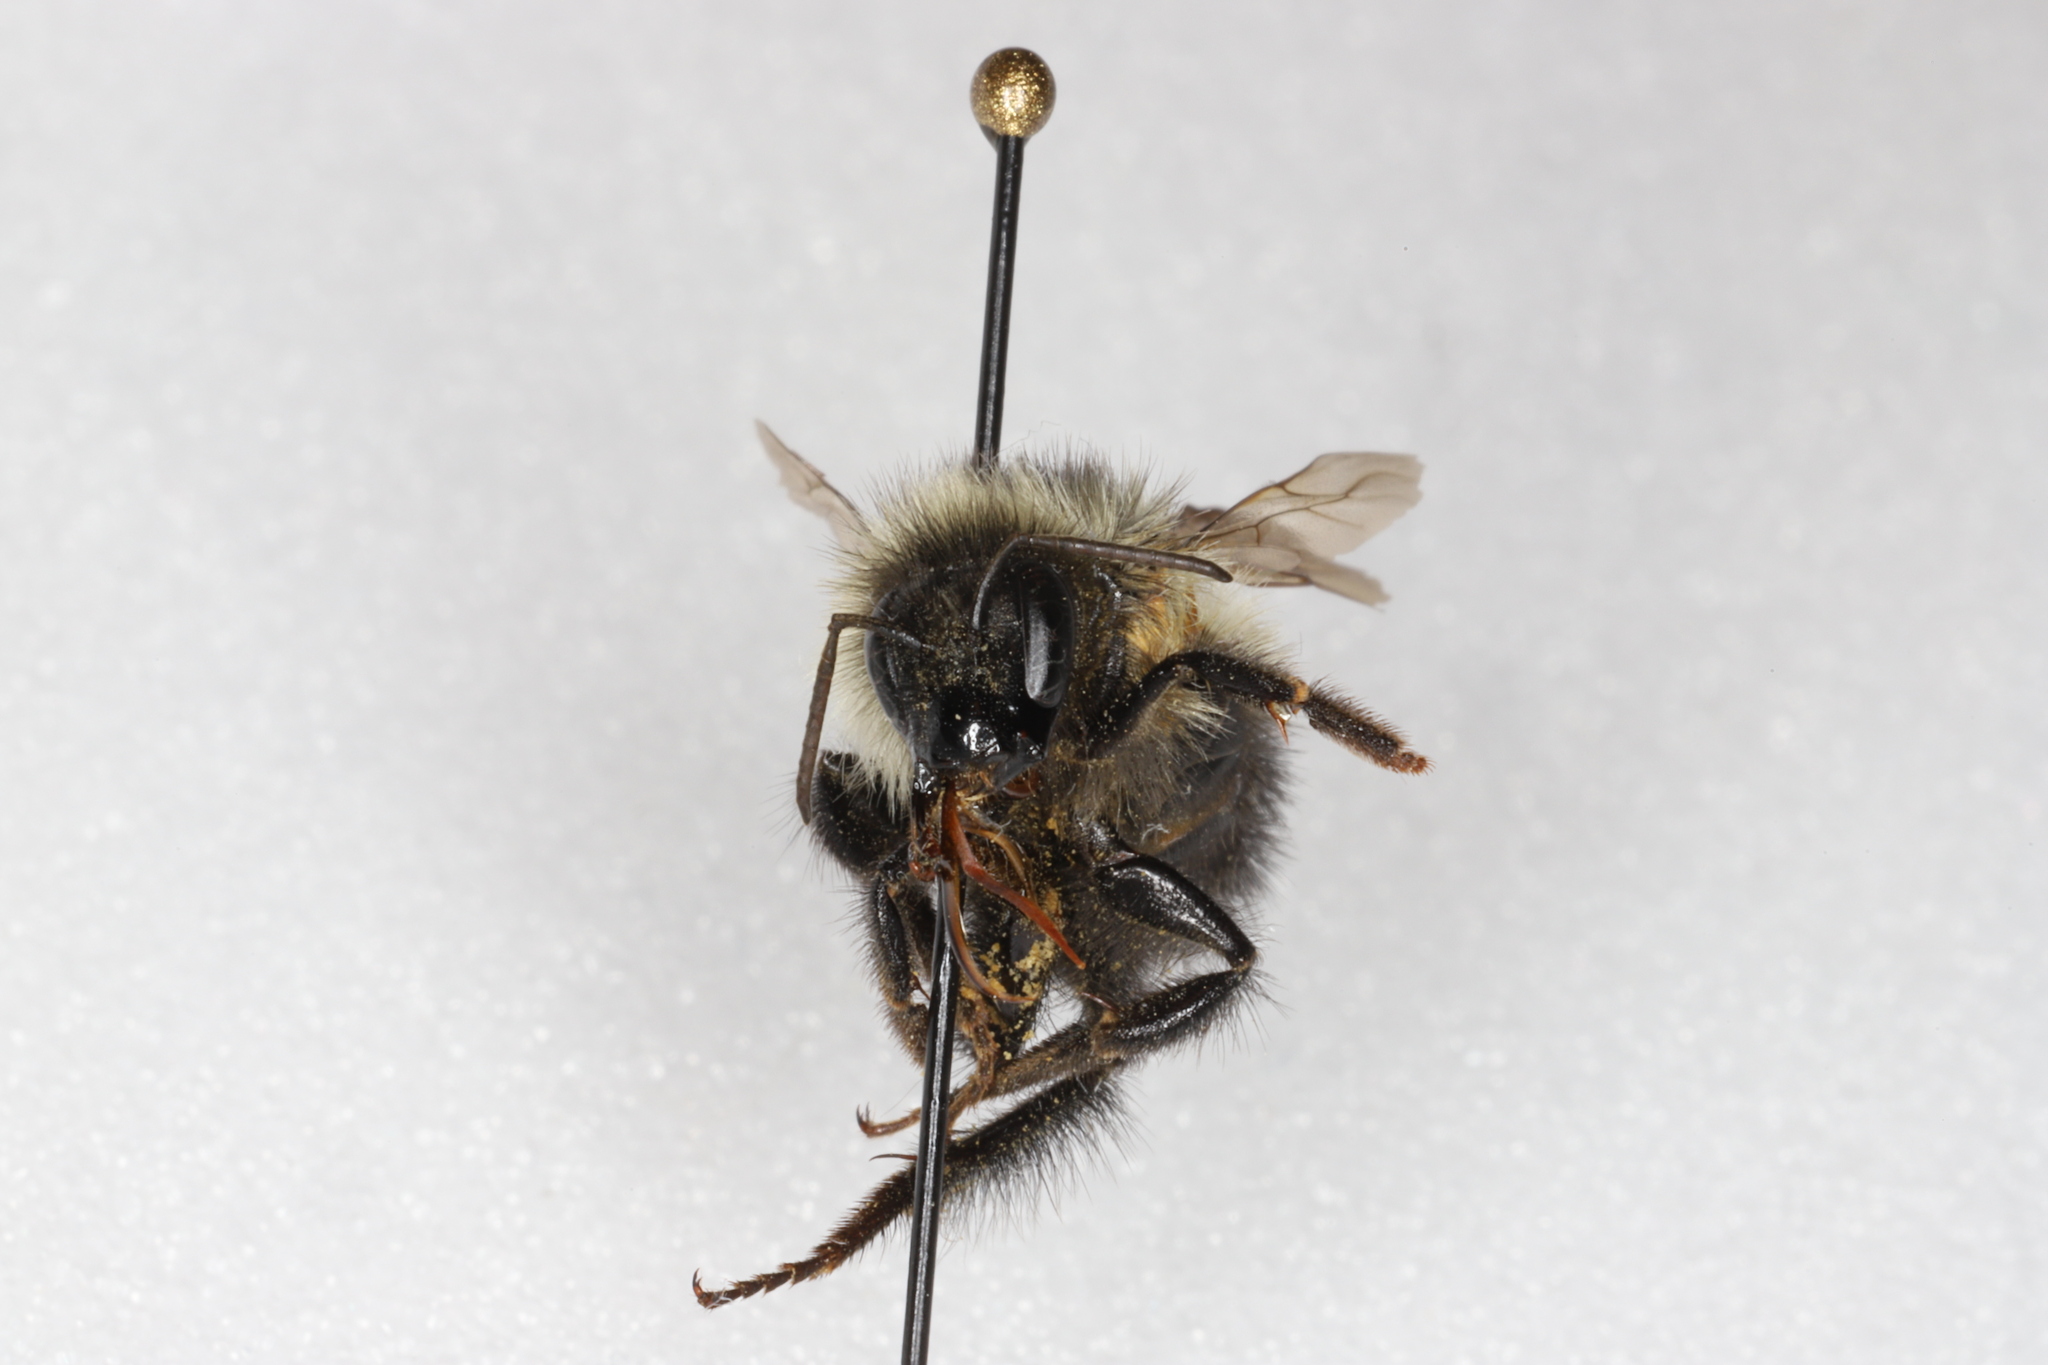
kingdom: Animalia
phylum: Arthropoda
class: Insecta
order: Hymenoptera
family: Apidae
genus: Bombus
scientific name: Bombus vagans
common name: Half-black bumble bee
